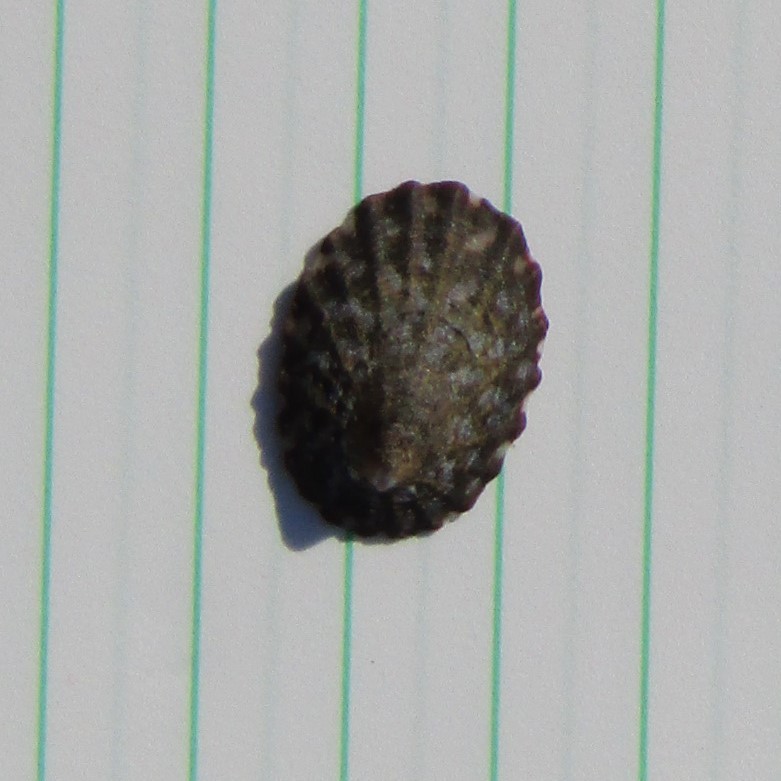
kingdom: Animalia
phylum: Mollusca
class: Gastropoda
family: Nacellidae
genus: Cellana
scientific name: Cellana denticulata
